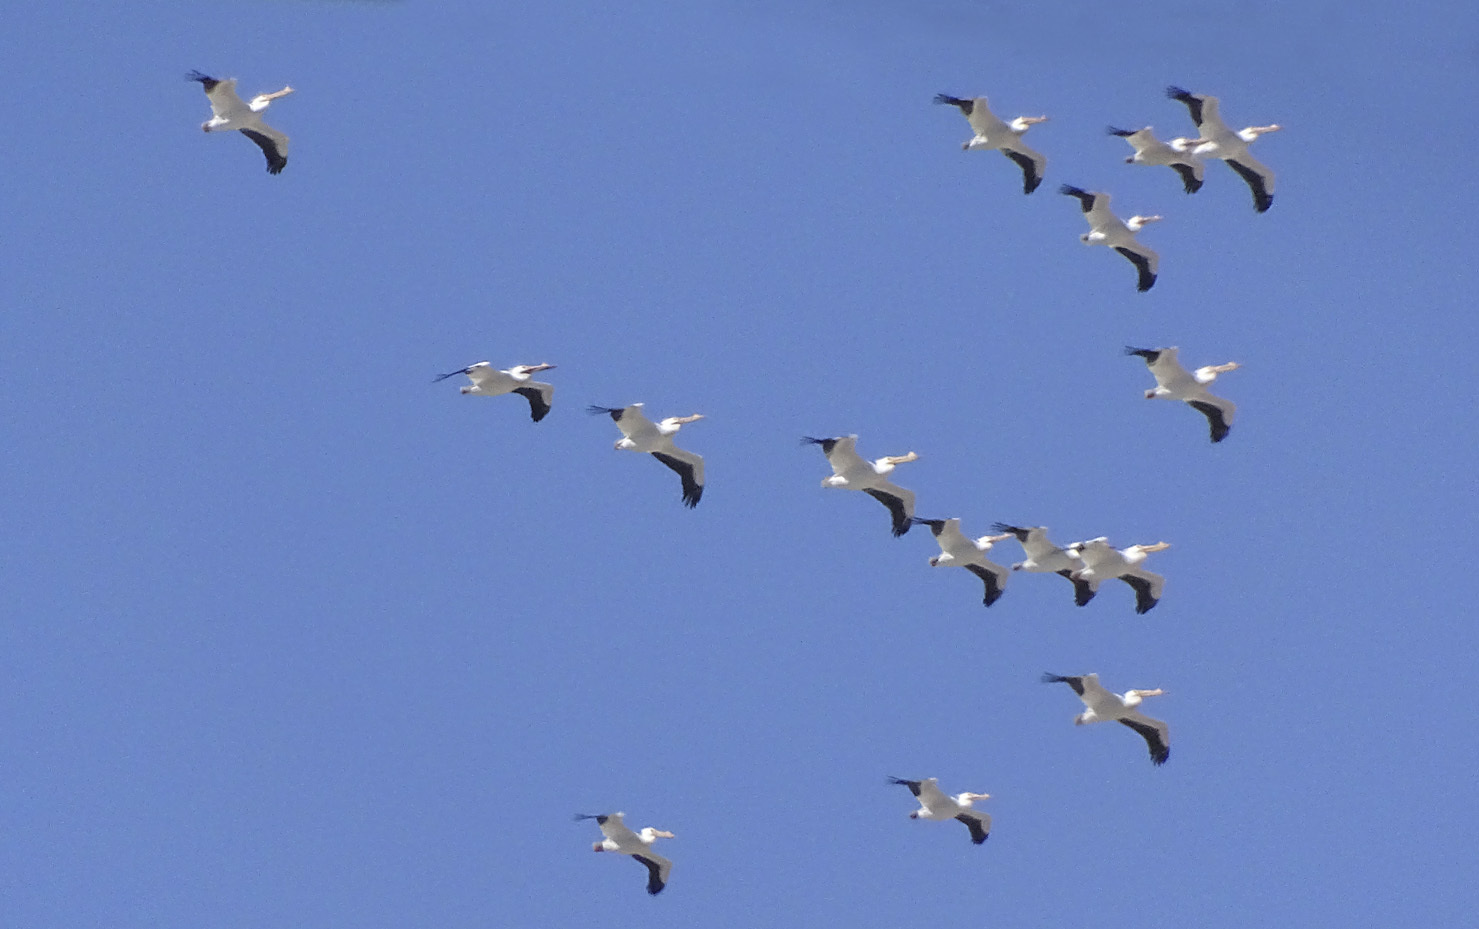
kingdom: Animalia
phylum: Chordata
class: Aves
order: Pelecaniformes
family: Pelecanidae
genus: Pelecanus
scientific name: Pelecanus erythrorhynchos
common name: American white pelican
